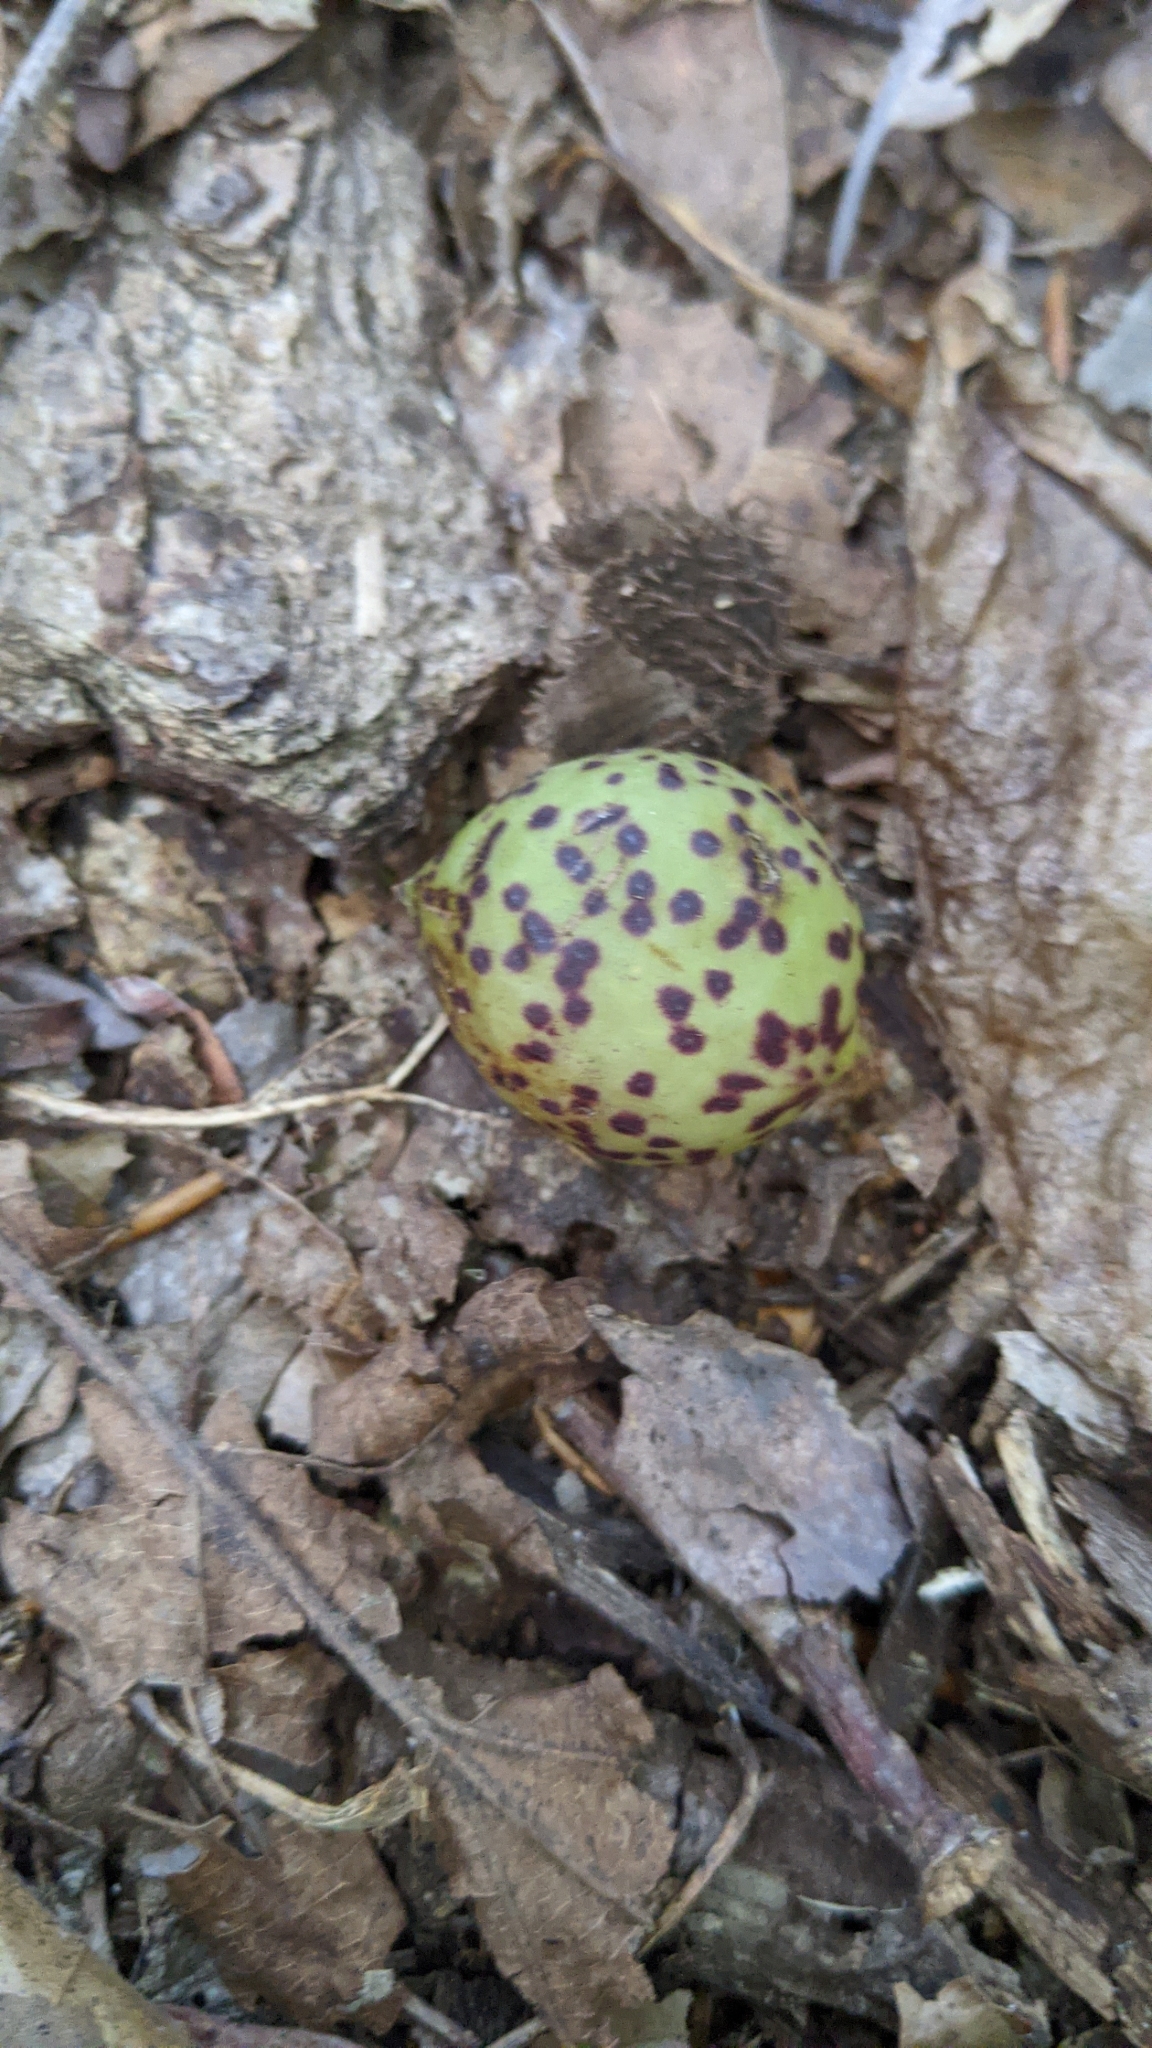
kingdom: Animalia
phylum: Arthropoda
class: Insecta
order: Hymenoptera
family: Cynipidae
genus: Amphibolips
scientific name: Amphibolips
